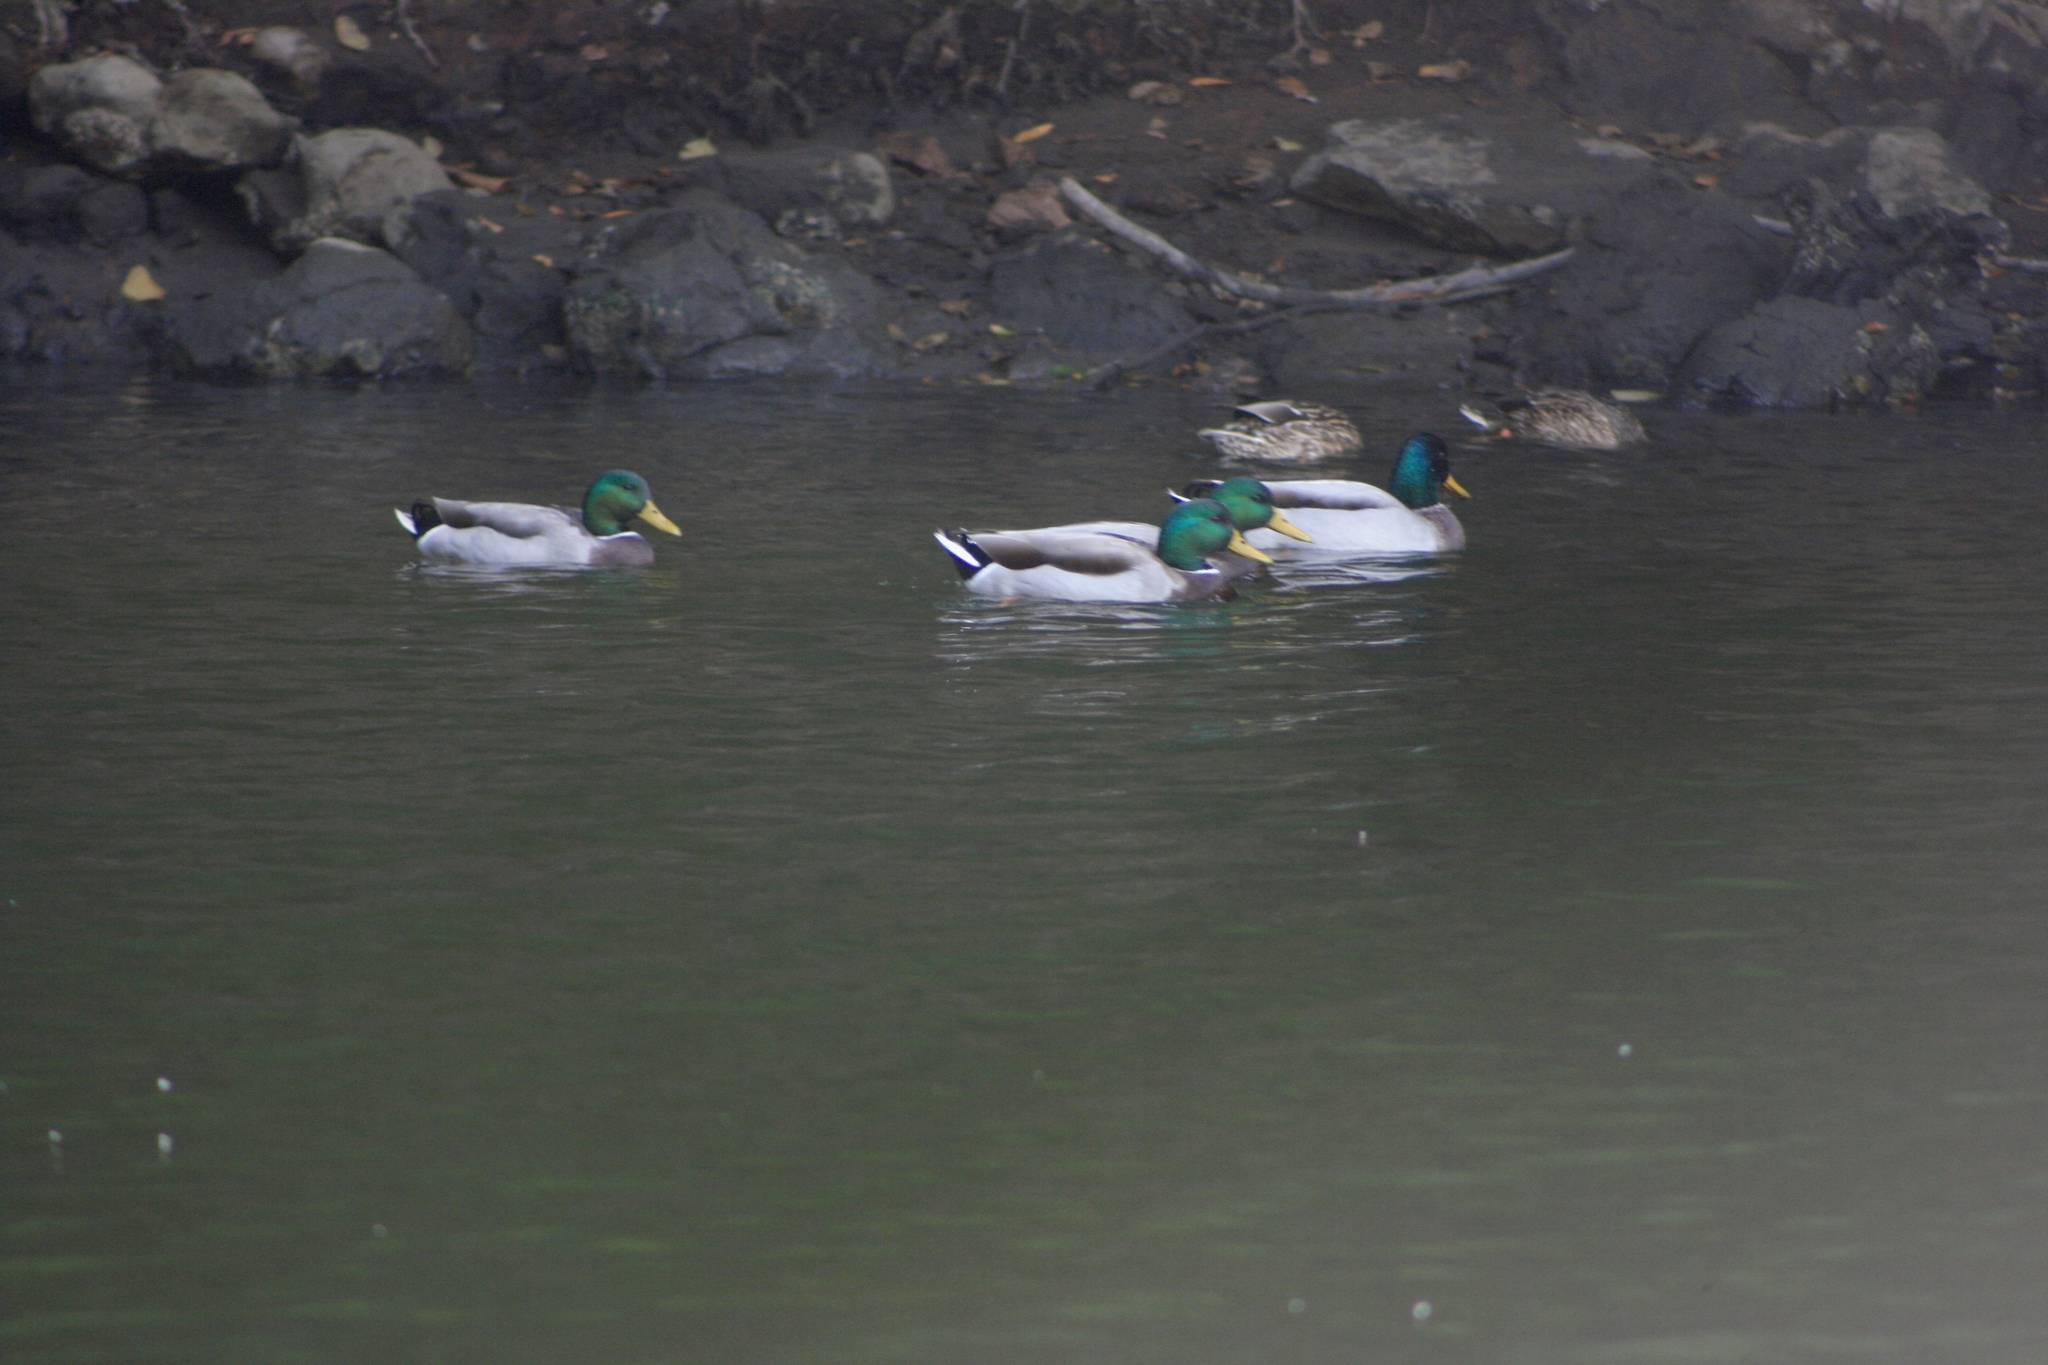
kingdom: Animalia
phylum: Chordata
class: Aves
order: Anseriformes
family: Anatidae
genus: Anas
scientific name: Anas platyrhynchos
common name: Mallard
